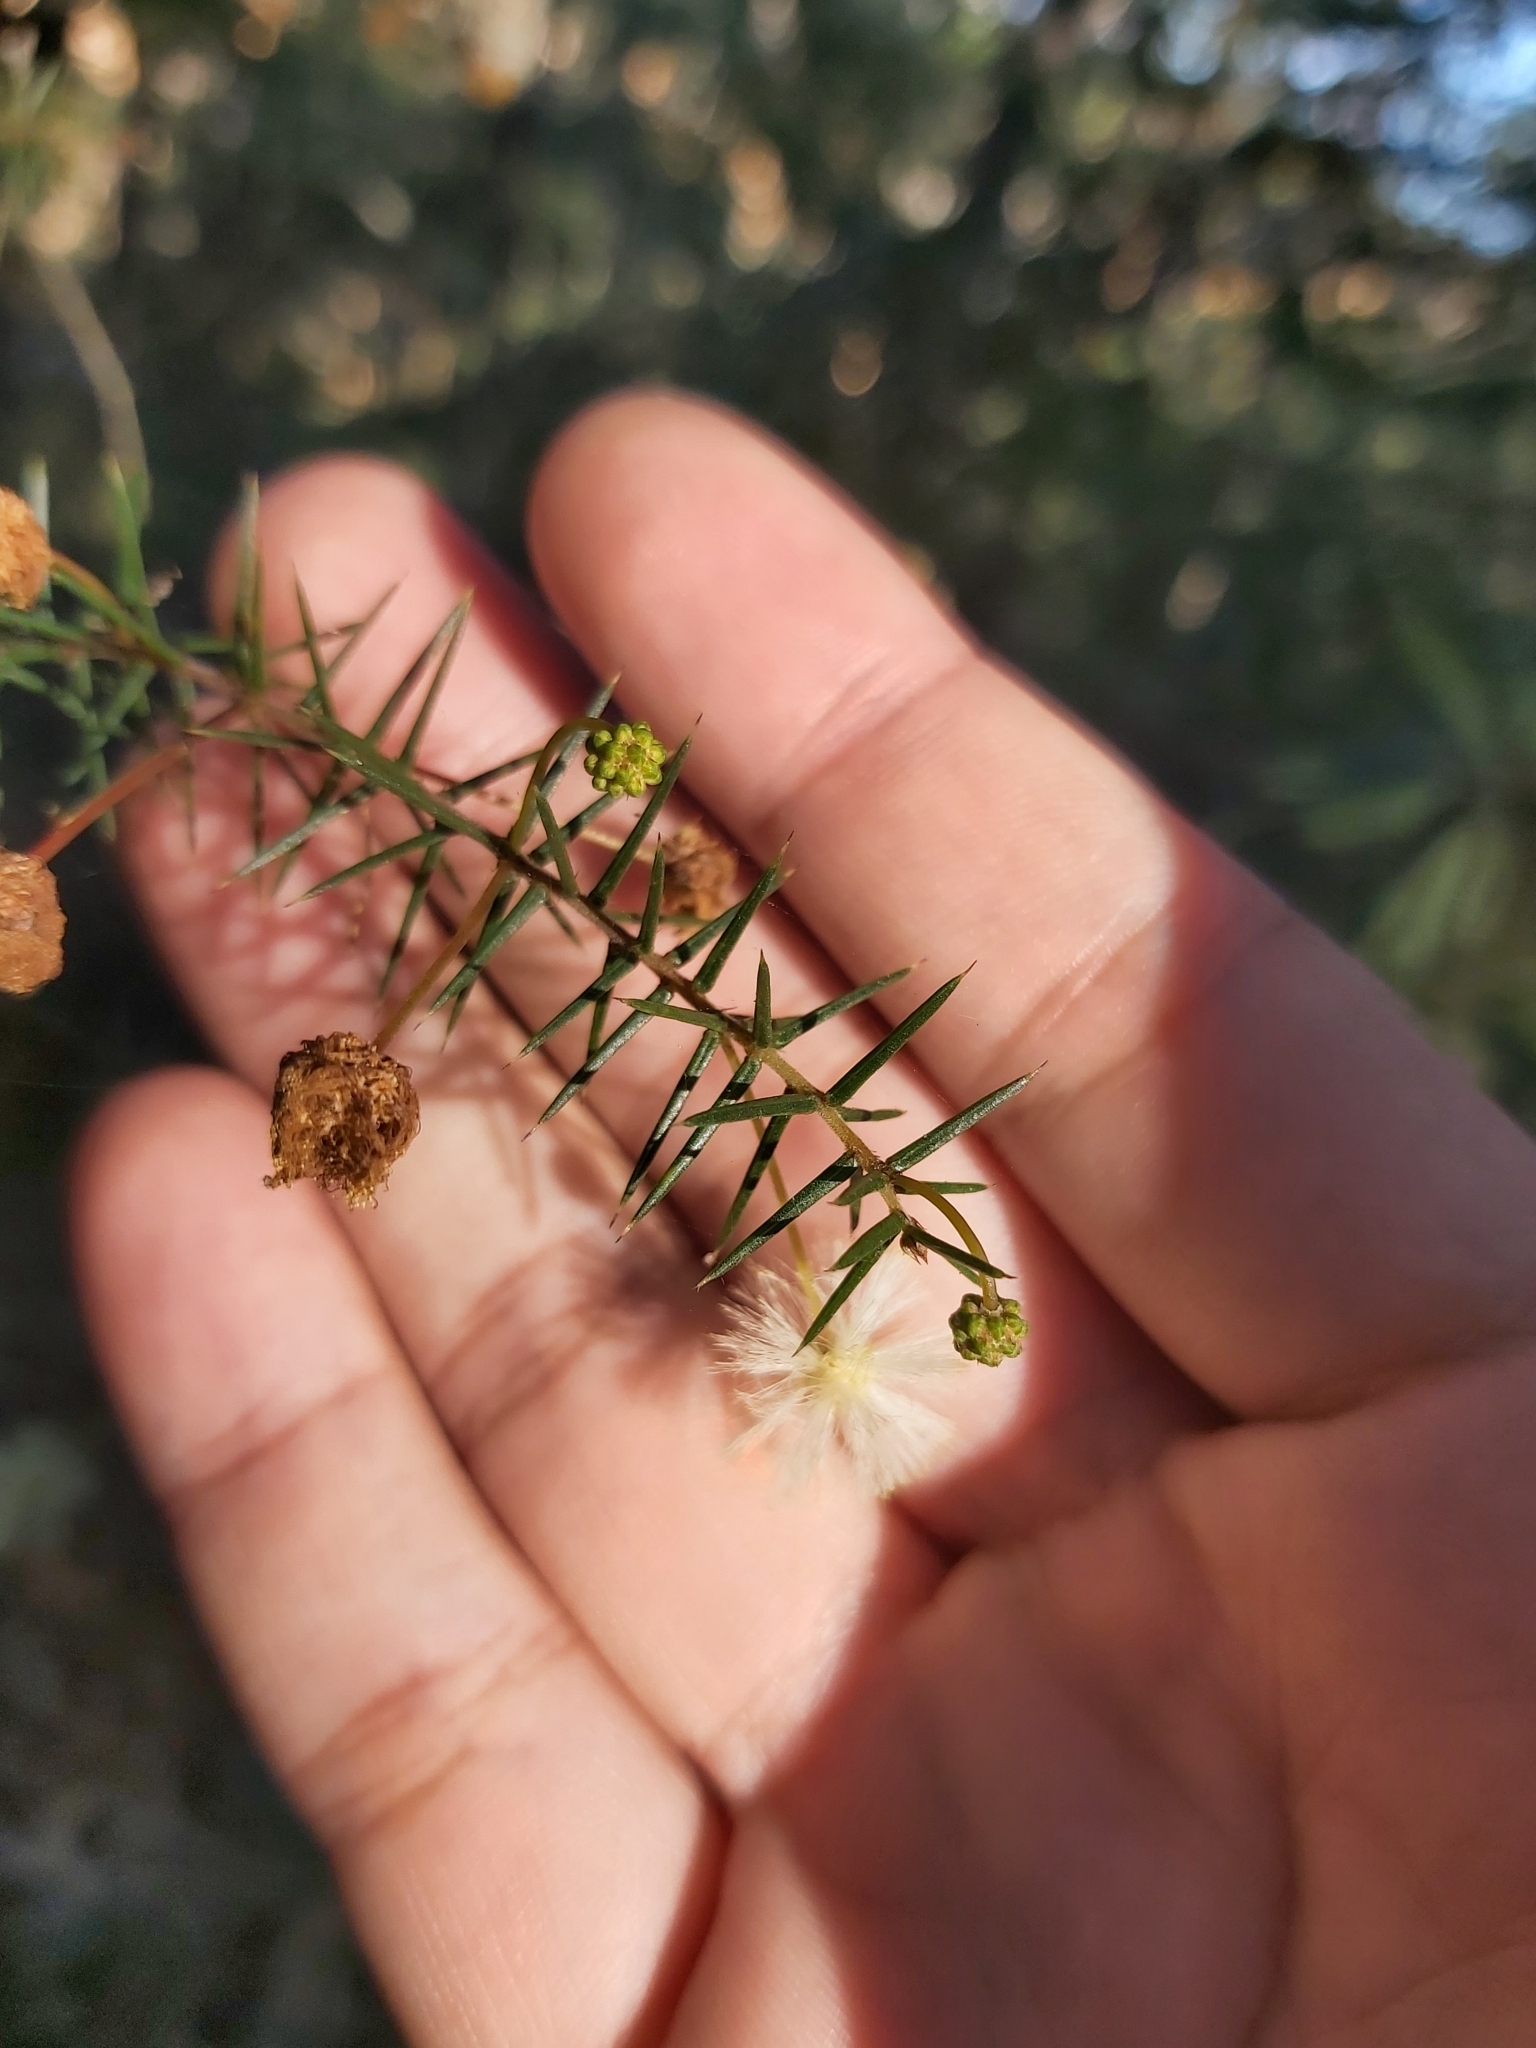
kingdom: Plantae
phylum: Tracheophyta
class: Magnoliopsida
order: Fabales
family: Fabaceae
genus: Acacia
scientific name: Acacia ulicifolia
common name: Juniper wattle
